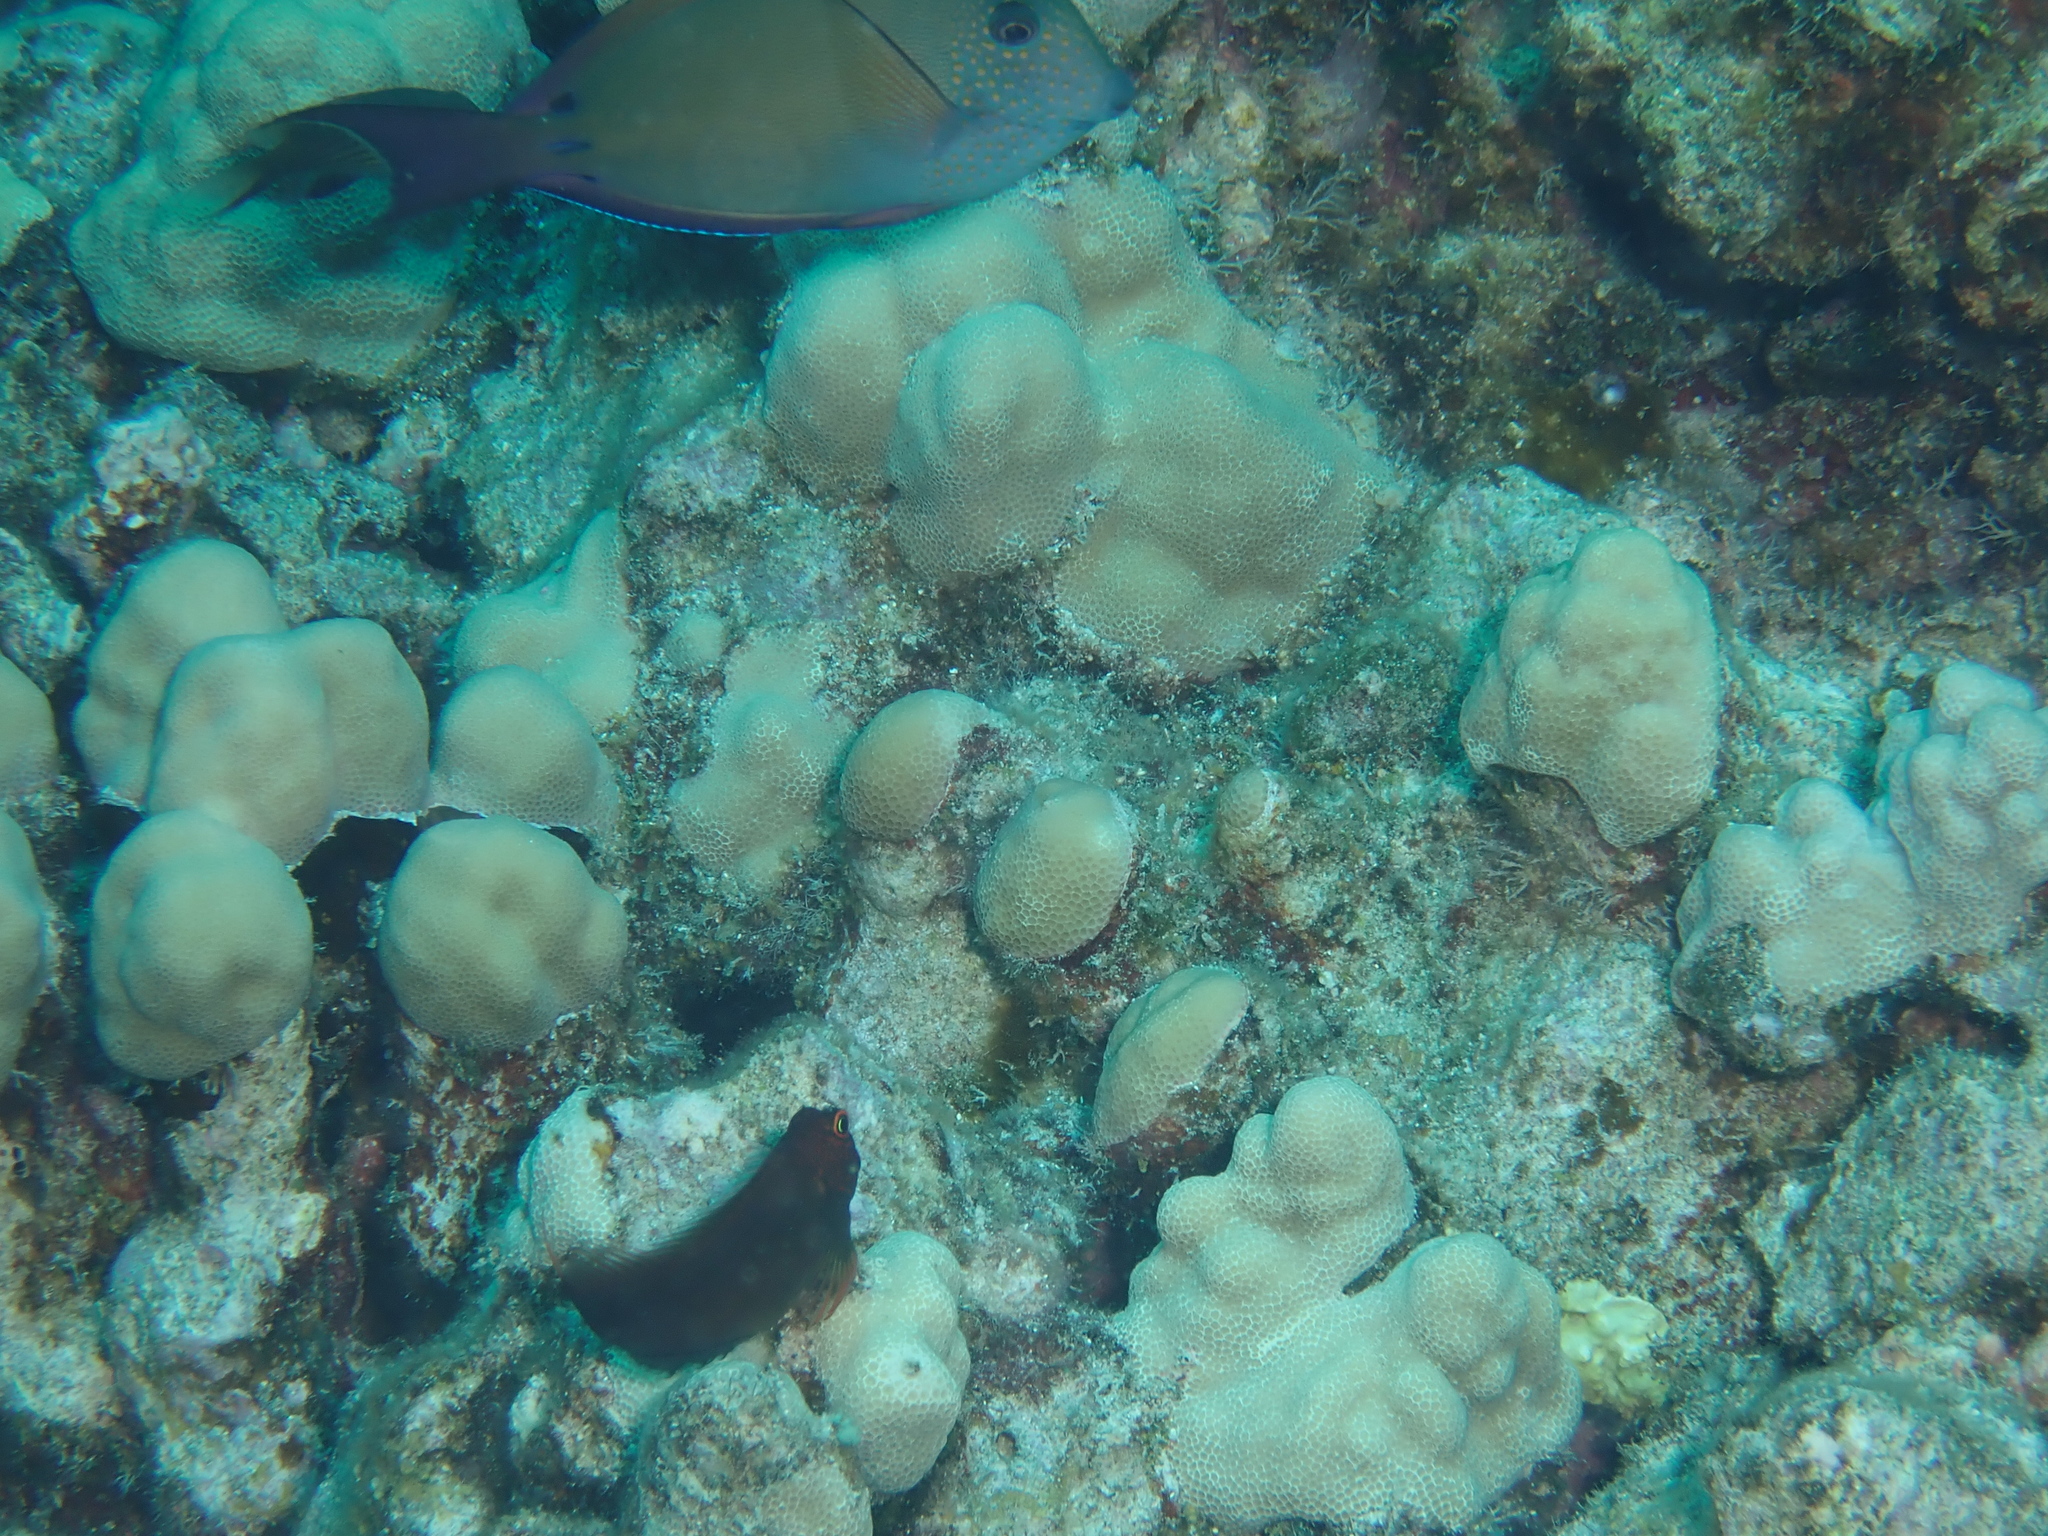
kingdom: Animalia
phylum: Chordata
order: Perciformes
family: Blenniidae
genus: Cirripectes
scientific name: Cirripectes vanderbilti
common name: Red-head blenny
